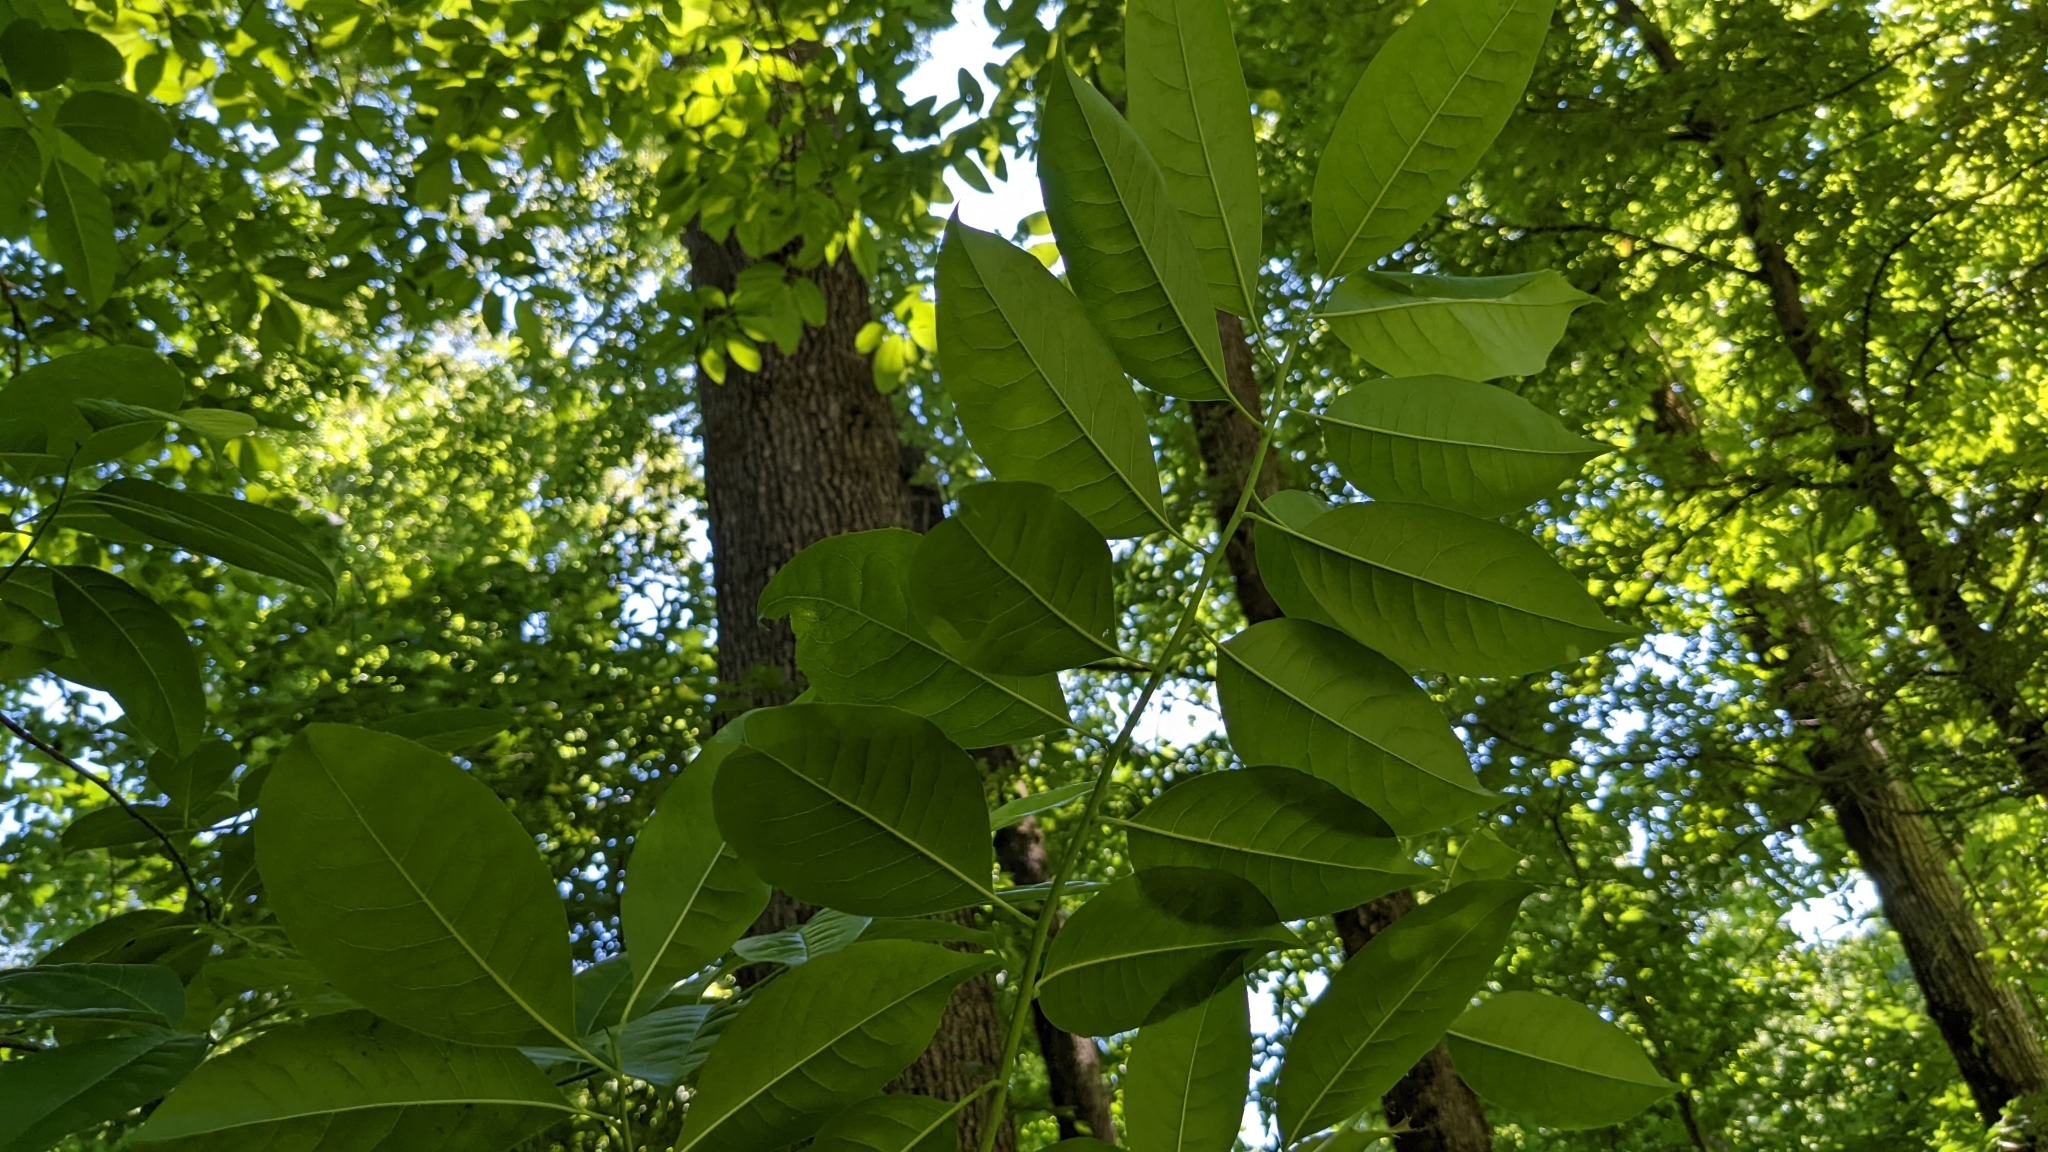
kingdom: Plantae
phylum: Tracheophyta
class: Magnoliopsida
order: Ericales
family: Ericaceae
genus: Oxydendrum
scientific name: Oxydendrum arboreum
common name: Sourwood
